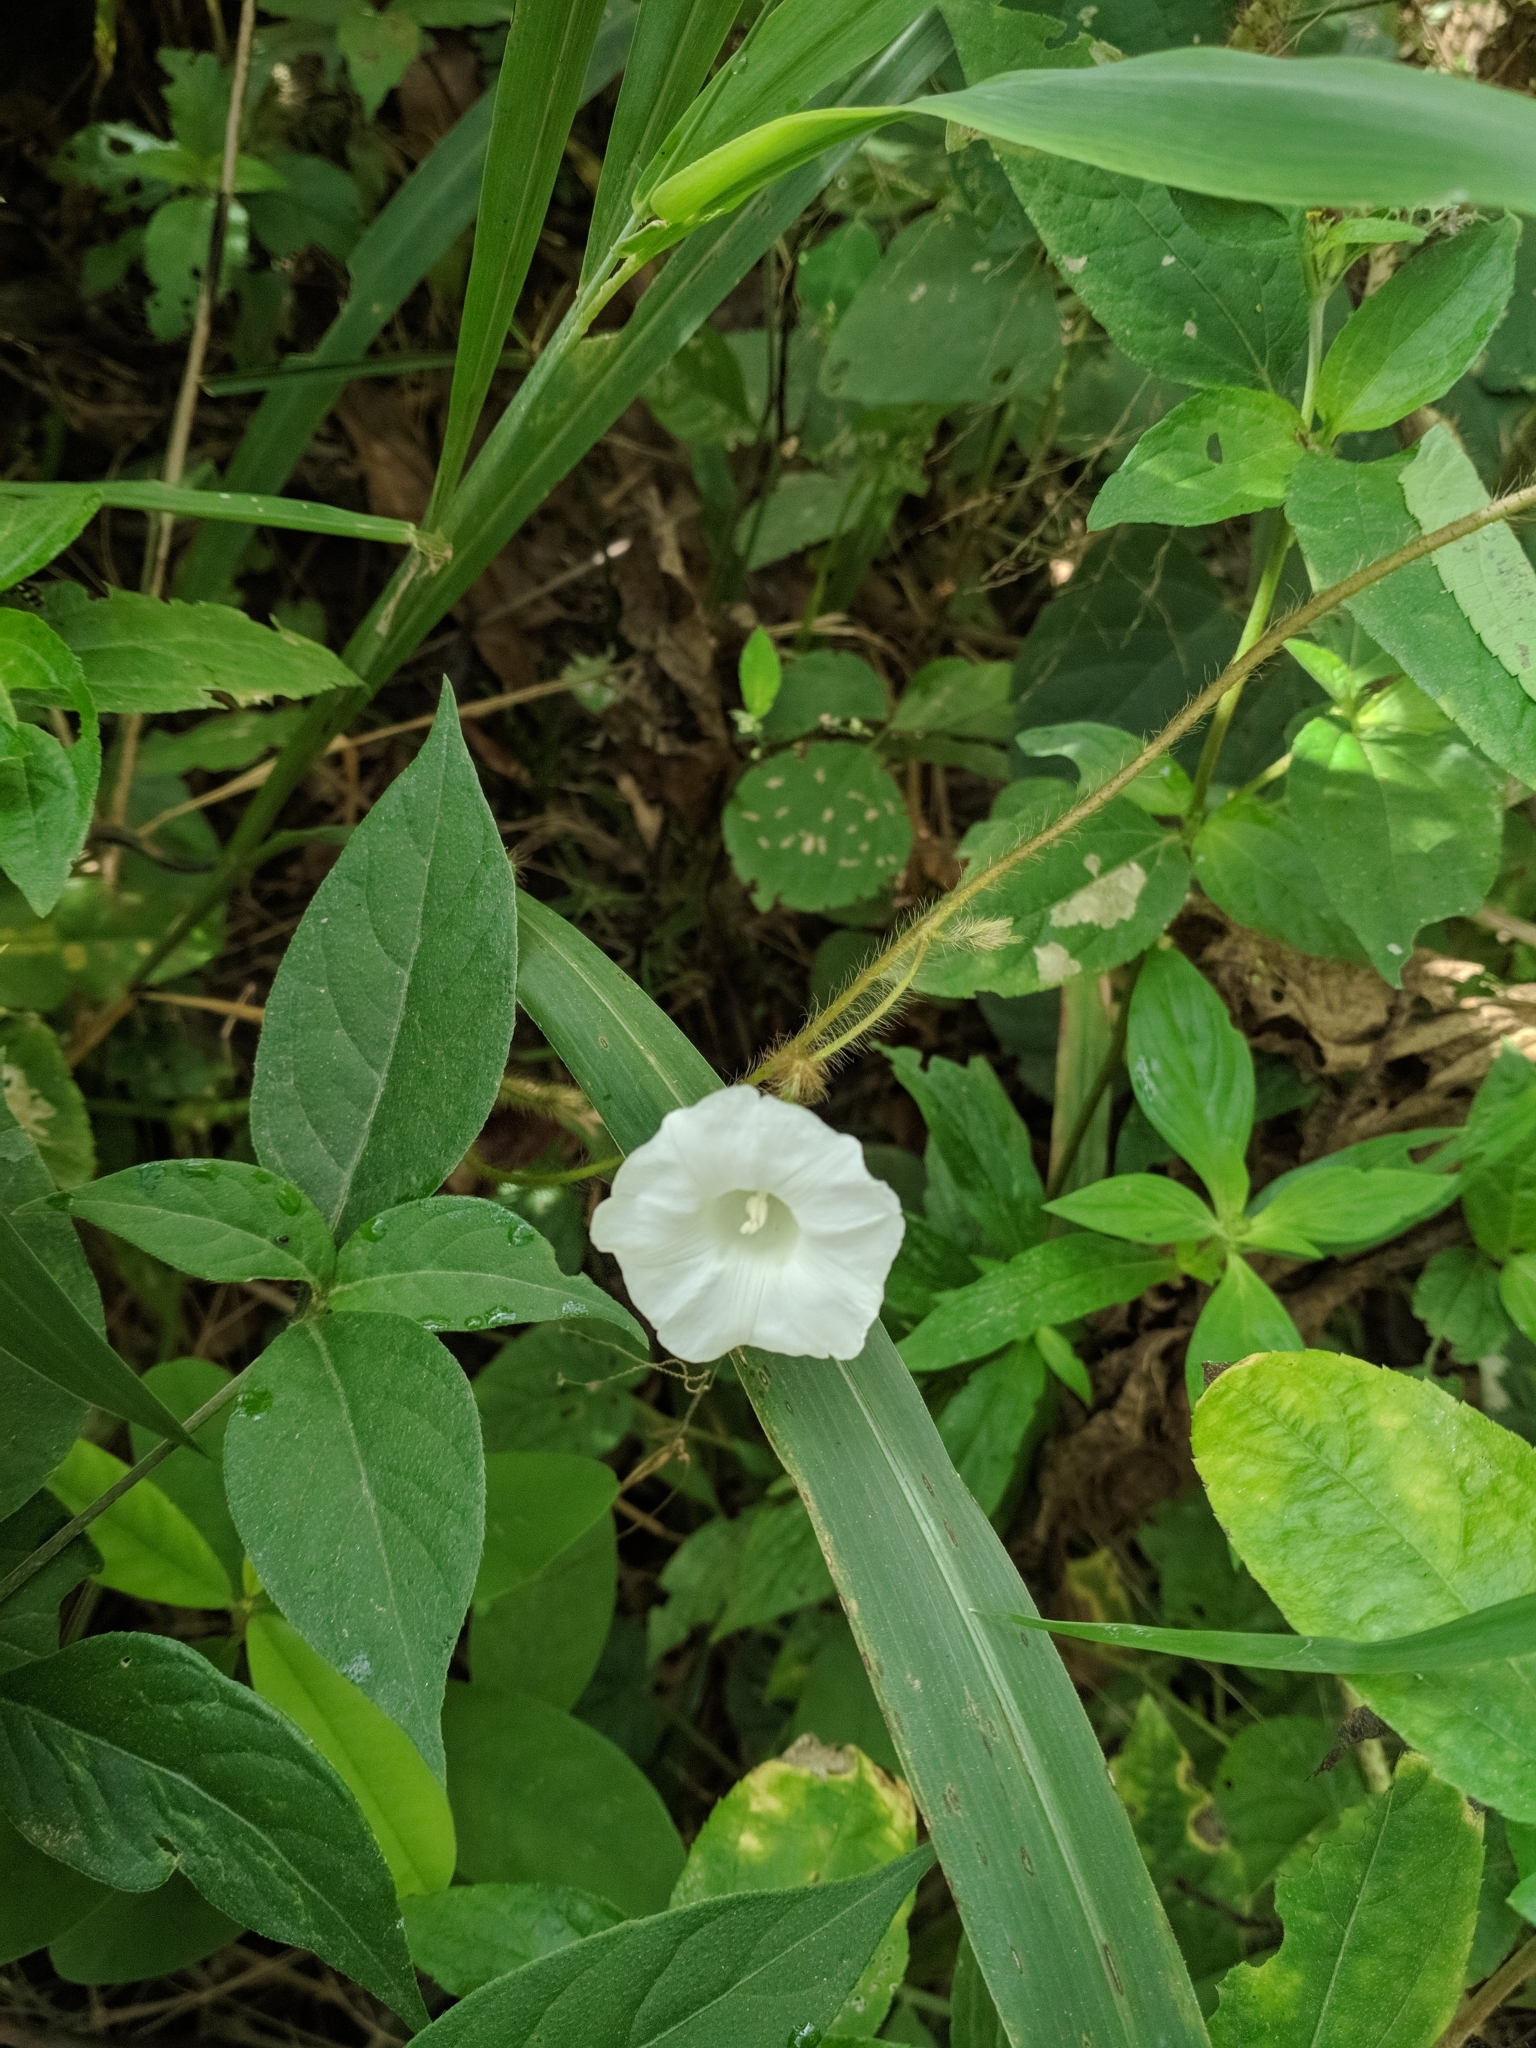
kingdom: Plantae
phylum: Tracheophyta
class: Magnoliopsida
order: Solanales
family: Convolvulaceae
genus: Distimake
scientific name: Distimake aegyptius
